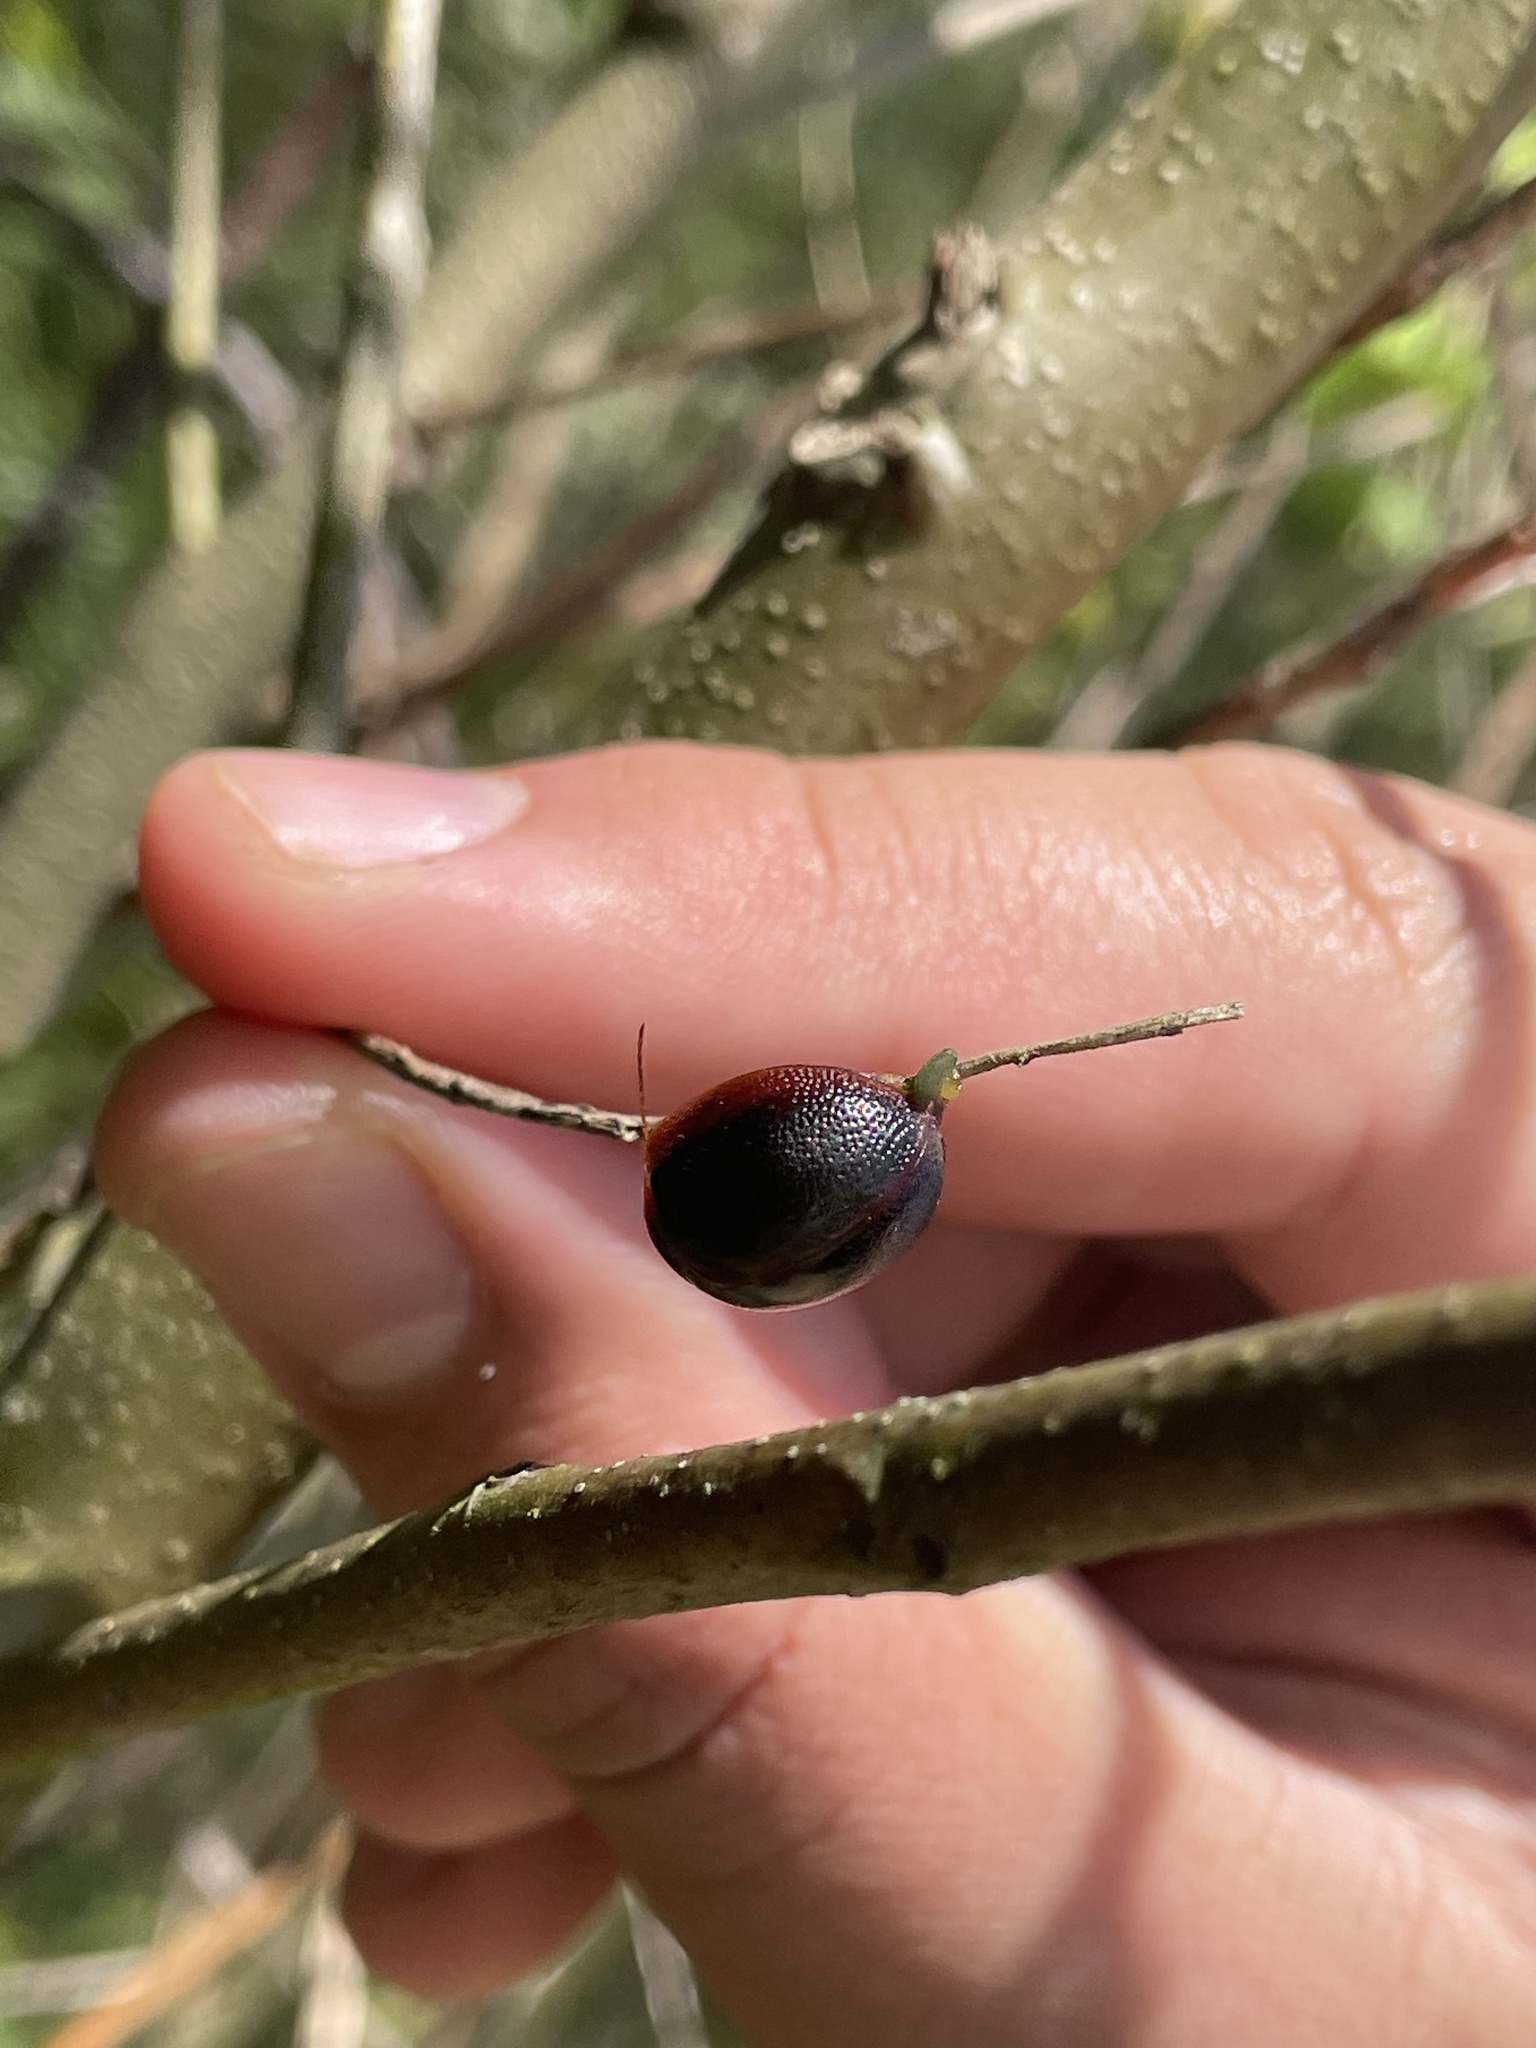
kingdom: Animalia
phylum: Arthropoda
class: Insecta
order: Coleoptera
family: Chrysomelidae
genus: Dicranosterna
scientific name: Dicranosterna
